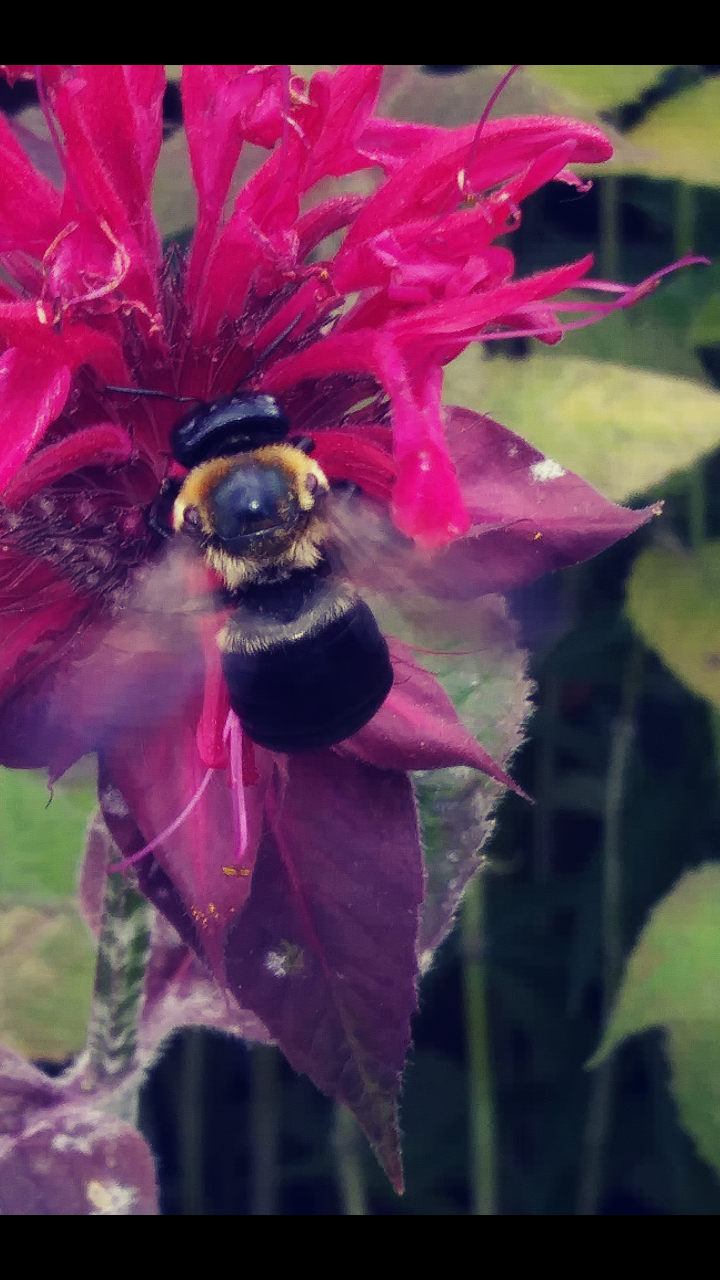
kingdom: Animalia
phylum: Arthropoda
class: Insecta
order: Hymenoptera
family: Apidae
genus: Xylocopa
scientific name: Xylocopa virginica
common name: Carpenter bee
